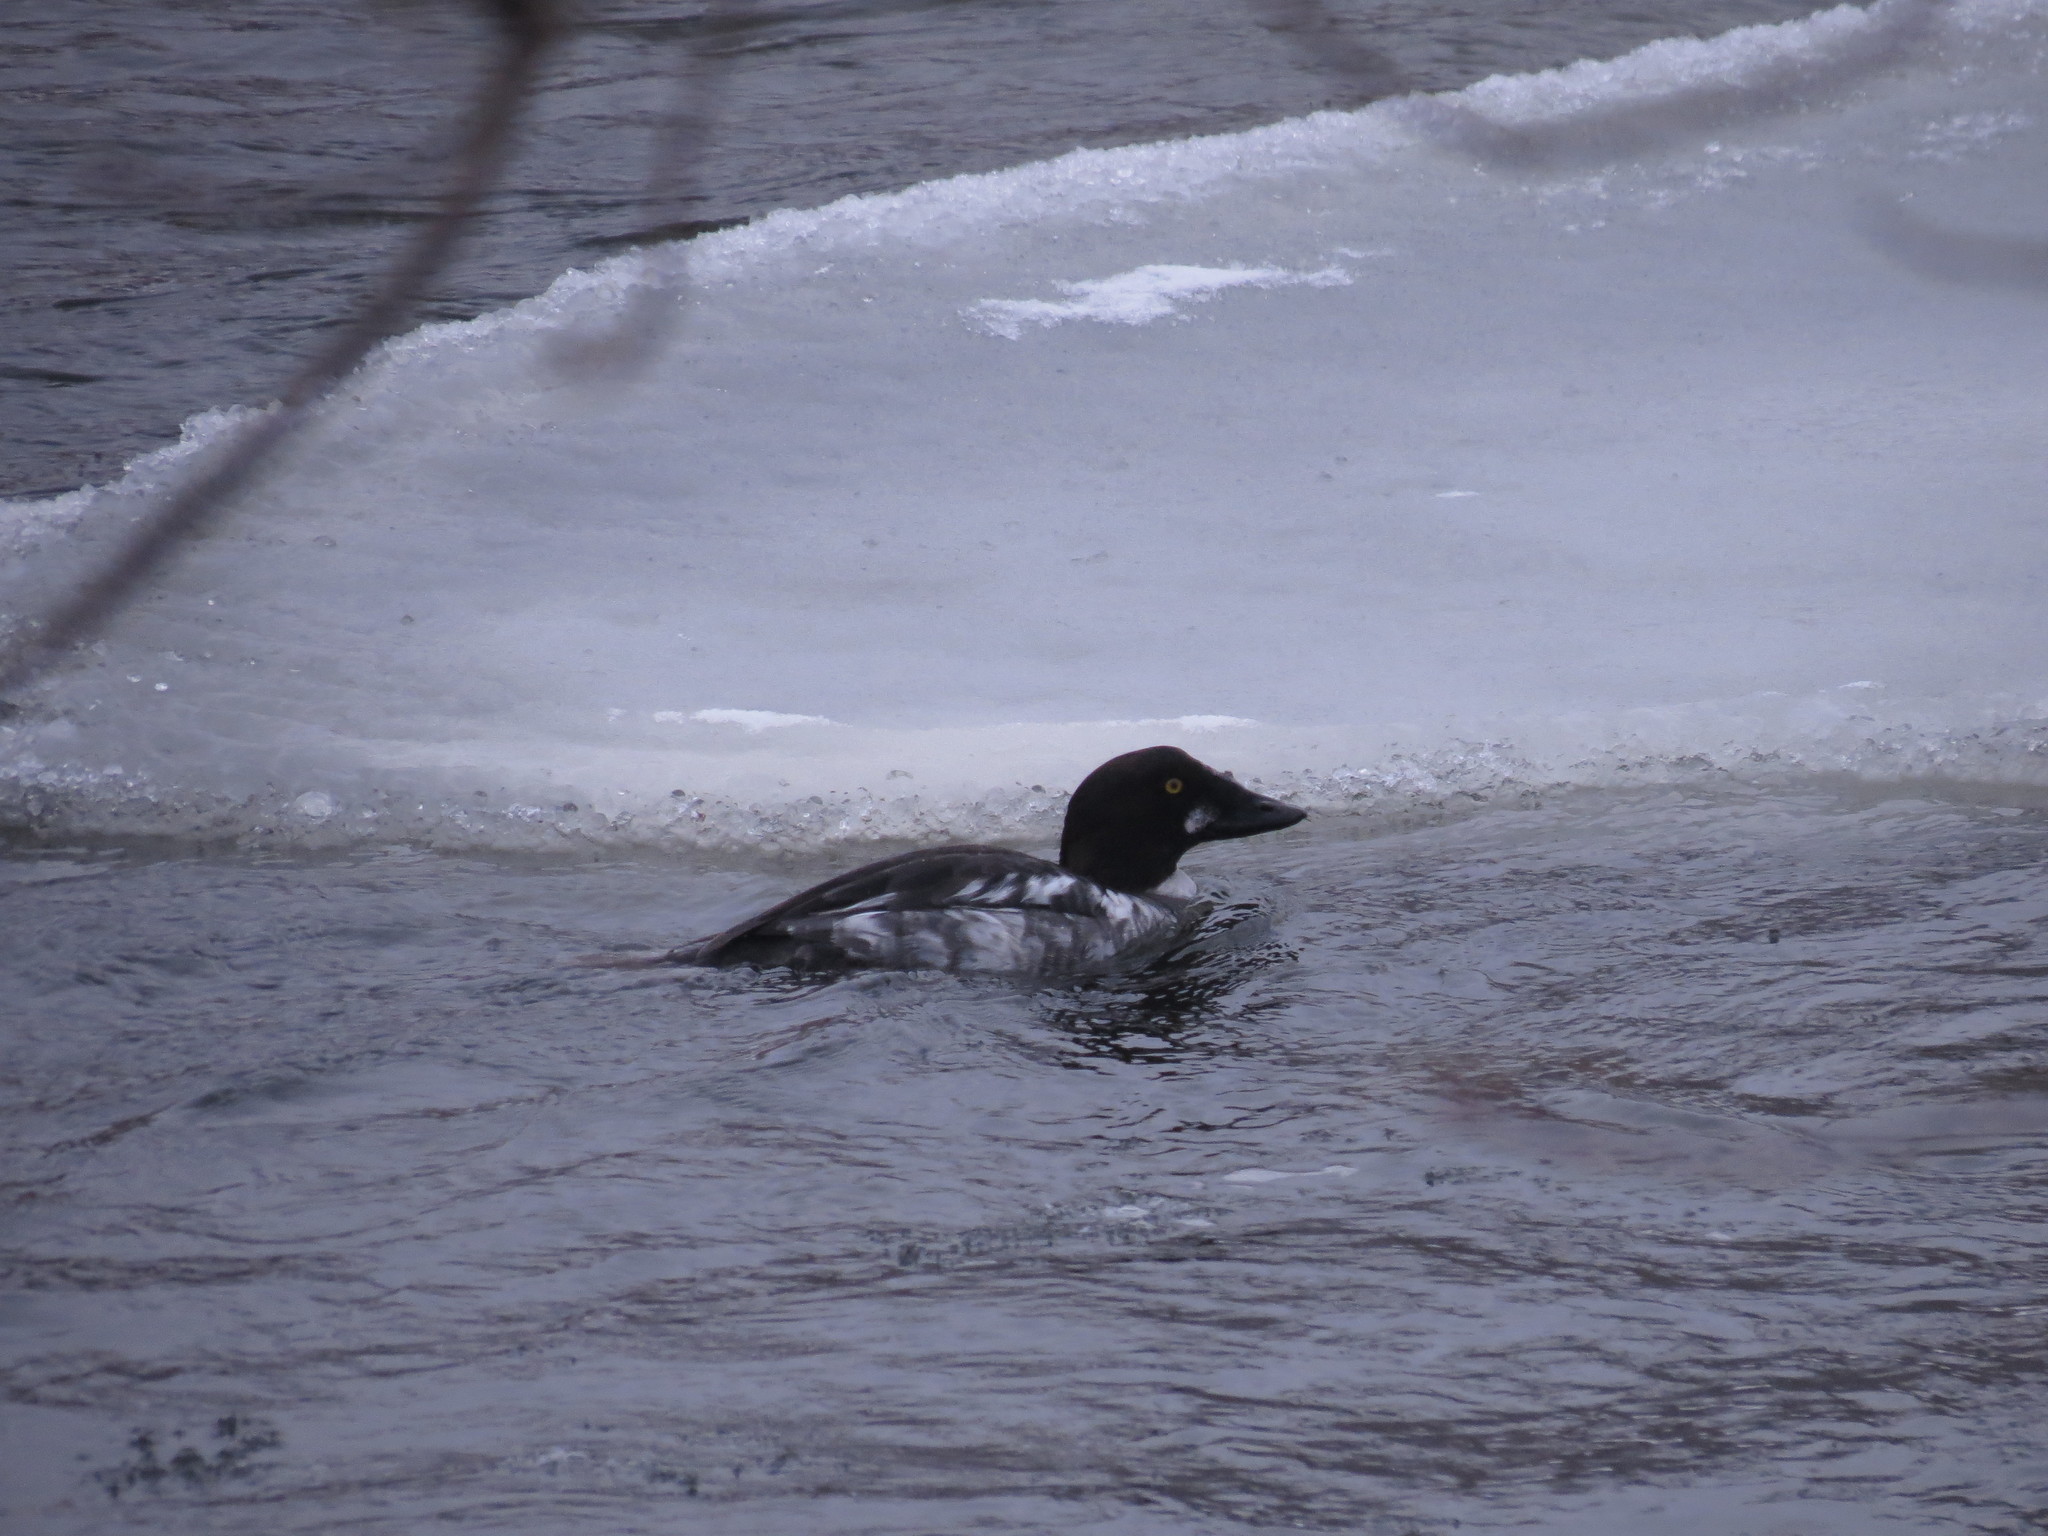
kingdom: Animalia
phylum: Chordata
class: Aves
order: Anseriformes
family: Anatidae
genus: Bucephala
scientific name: Bucephala clangula
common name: Common goldeneye
